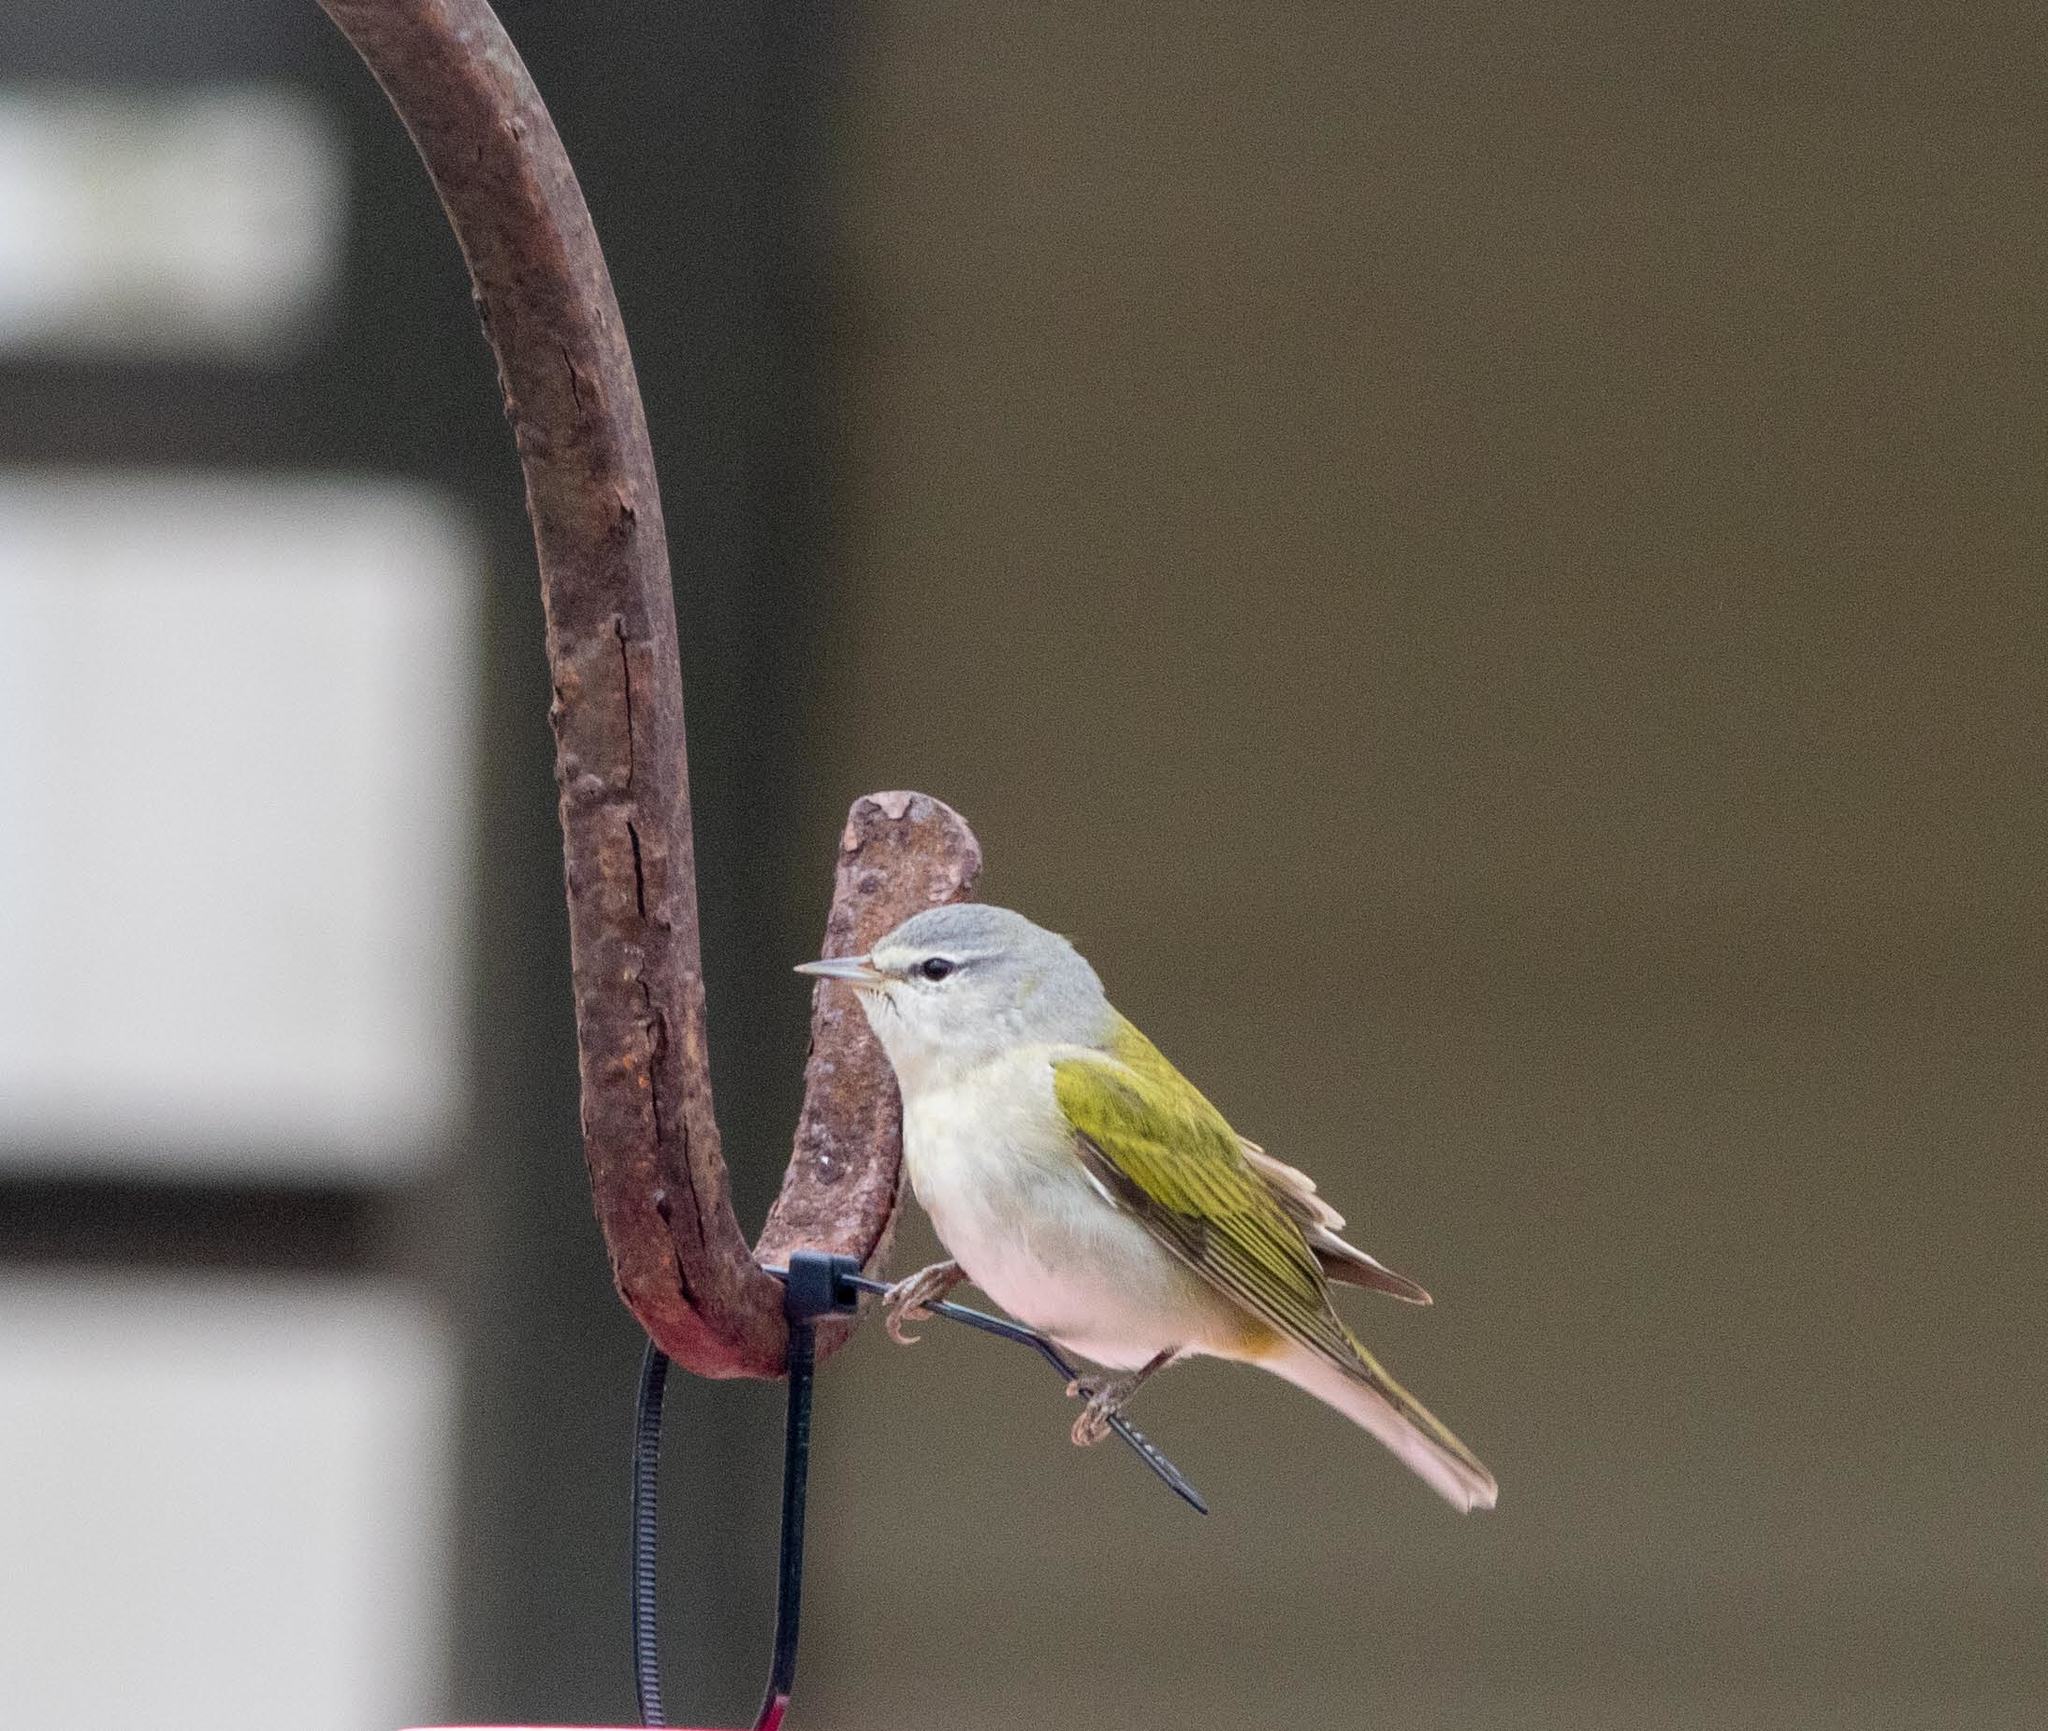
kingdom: Animalia
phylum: Chordata
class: Aves
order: Passeriformes
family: Parulidae
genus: Leiothlypis
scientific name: Leiothlypis peregrina
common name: Tennessee warbler
